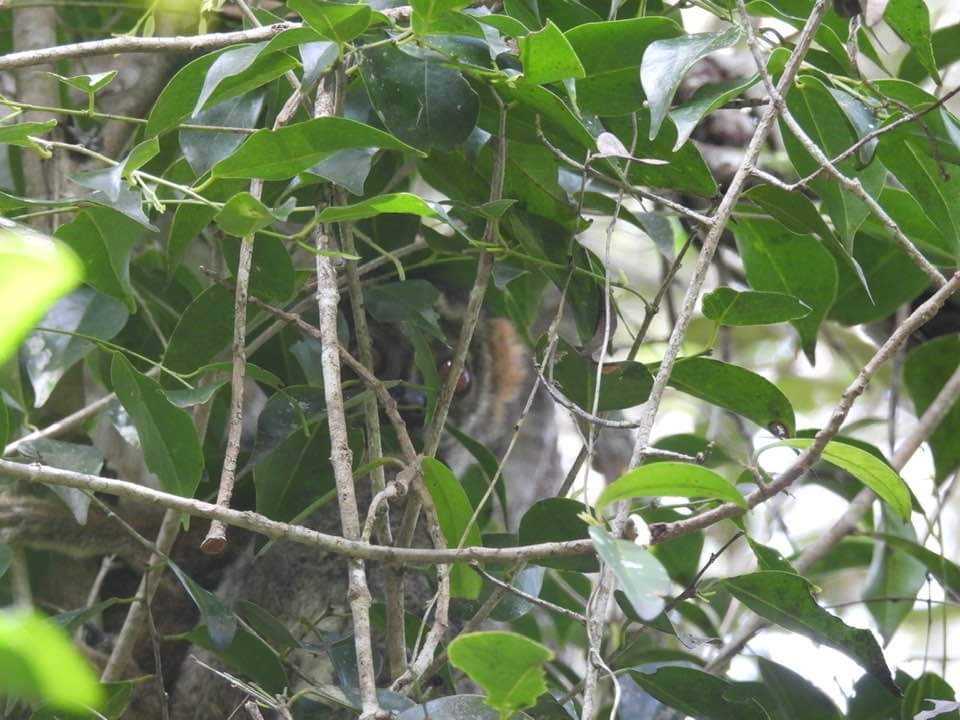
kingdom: Animalia
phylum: Chordata
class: Mammalia
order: Primates
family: Indriidae
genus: Avahi
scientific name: Avahi laniger
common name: Eastern woolly lemur
